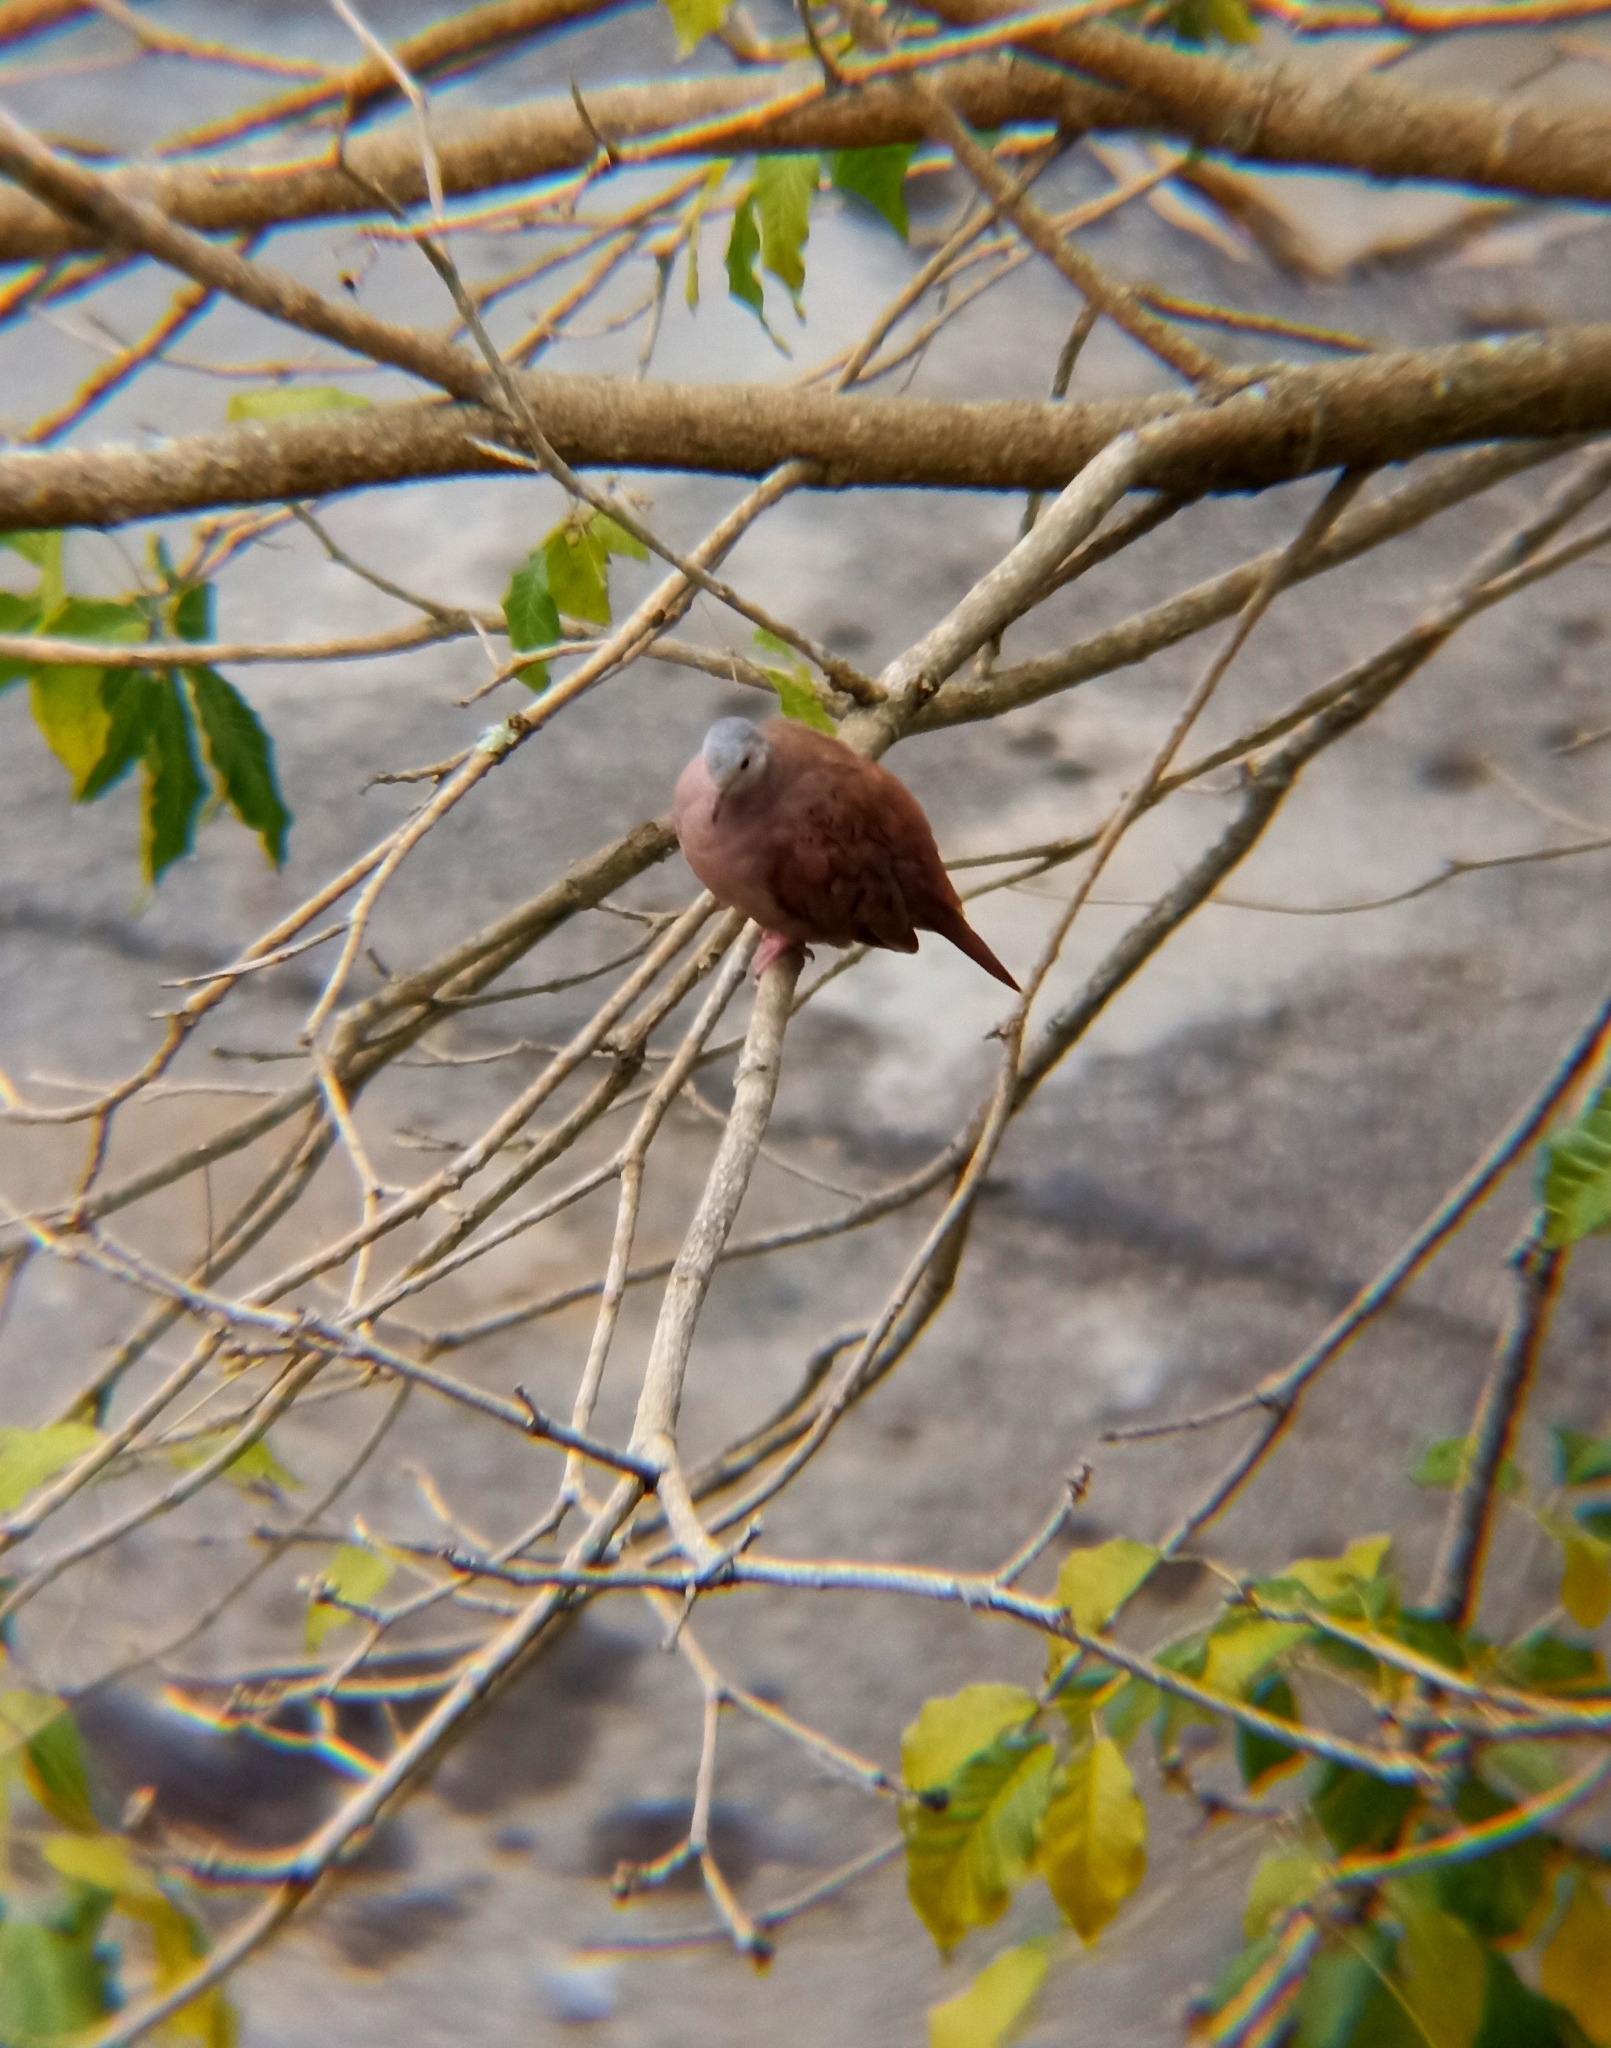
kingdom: Animalia
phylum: Chordata
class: Aves
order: Columbiformes
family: Columbidae
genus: Columbina
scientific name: Columbina talpacoti
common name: Ruddy ground dove
